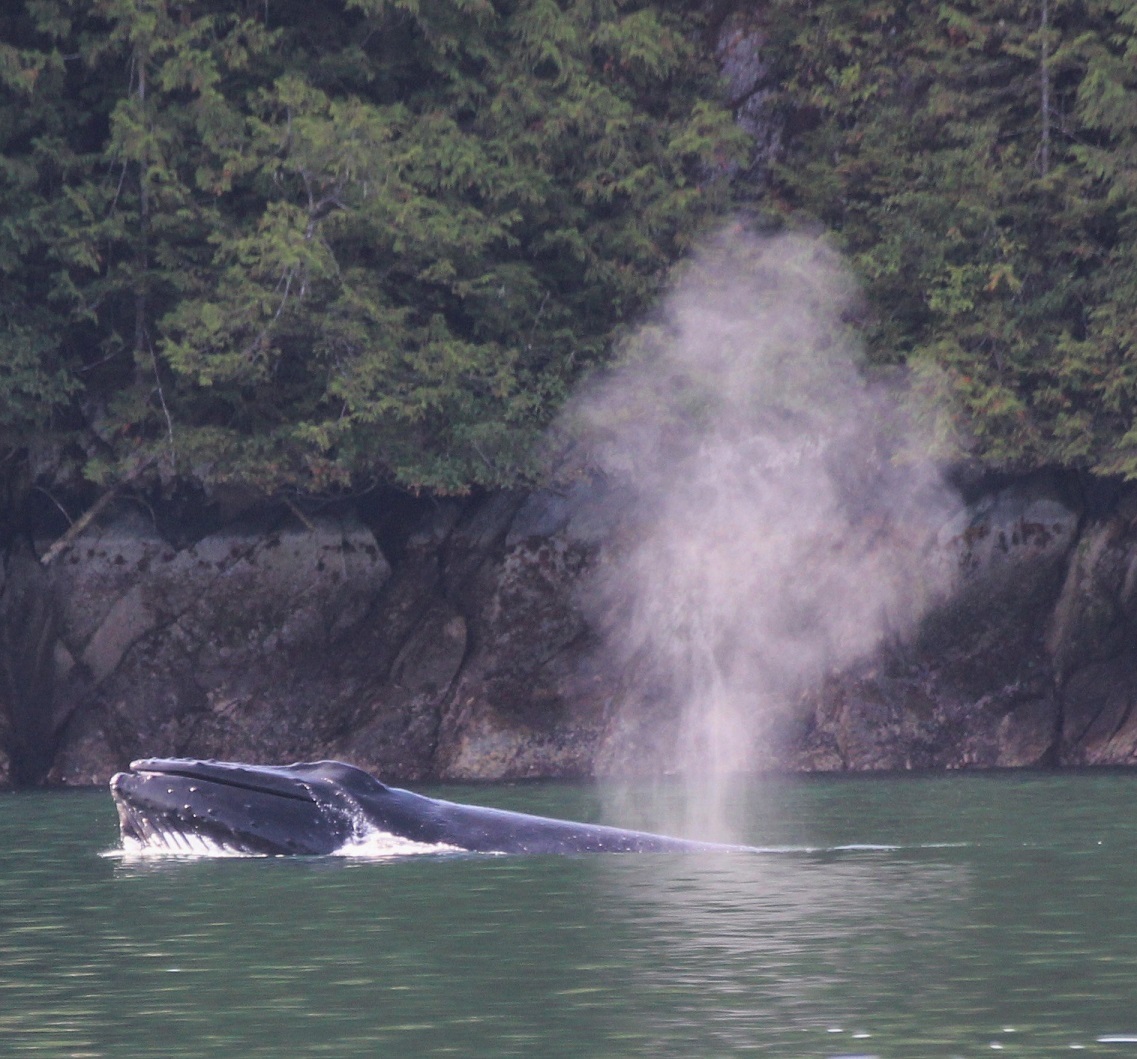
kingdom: Animalia
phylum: Chordata
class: Mammalia
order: Cetacea
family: Balaenopteridae
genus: Megaptera
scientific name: Megaptera novaeangliae
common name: Humpback whale
